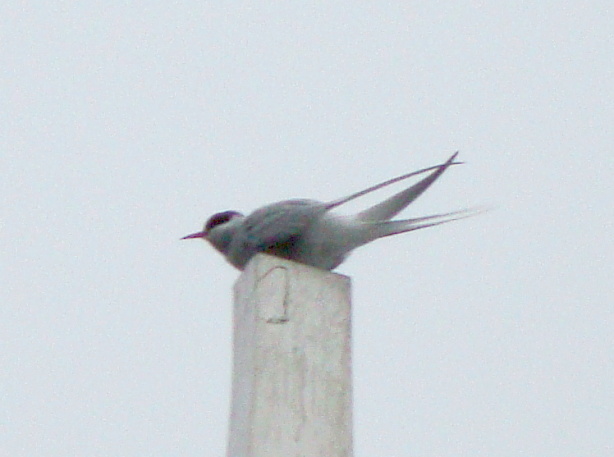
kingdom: Animalia
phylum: Chordata
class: Aves
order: Charadriiformes
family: Laridae
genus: Sterna
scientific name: Sterna paradisaea
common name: Arctic tern
